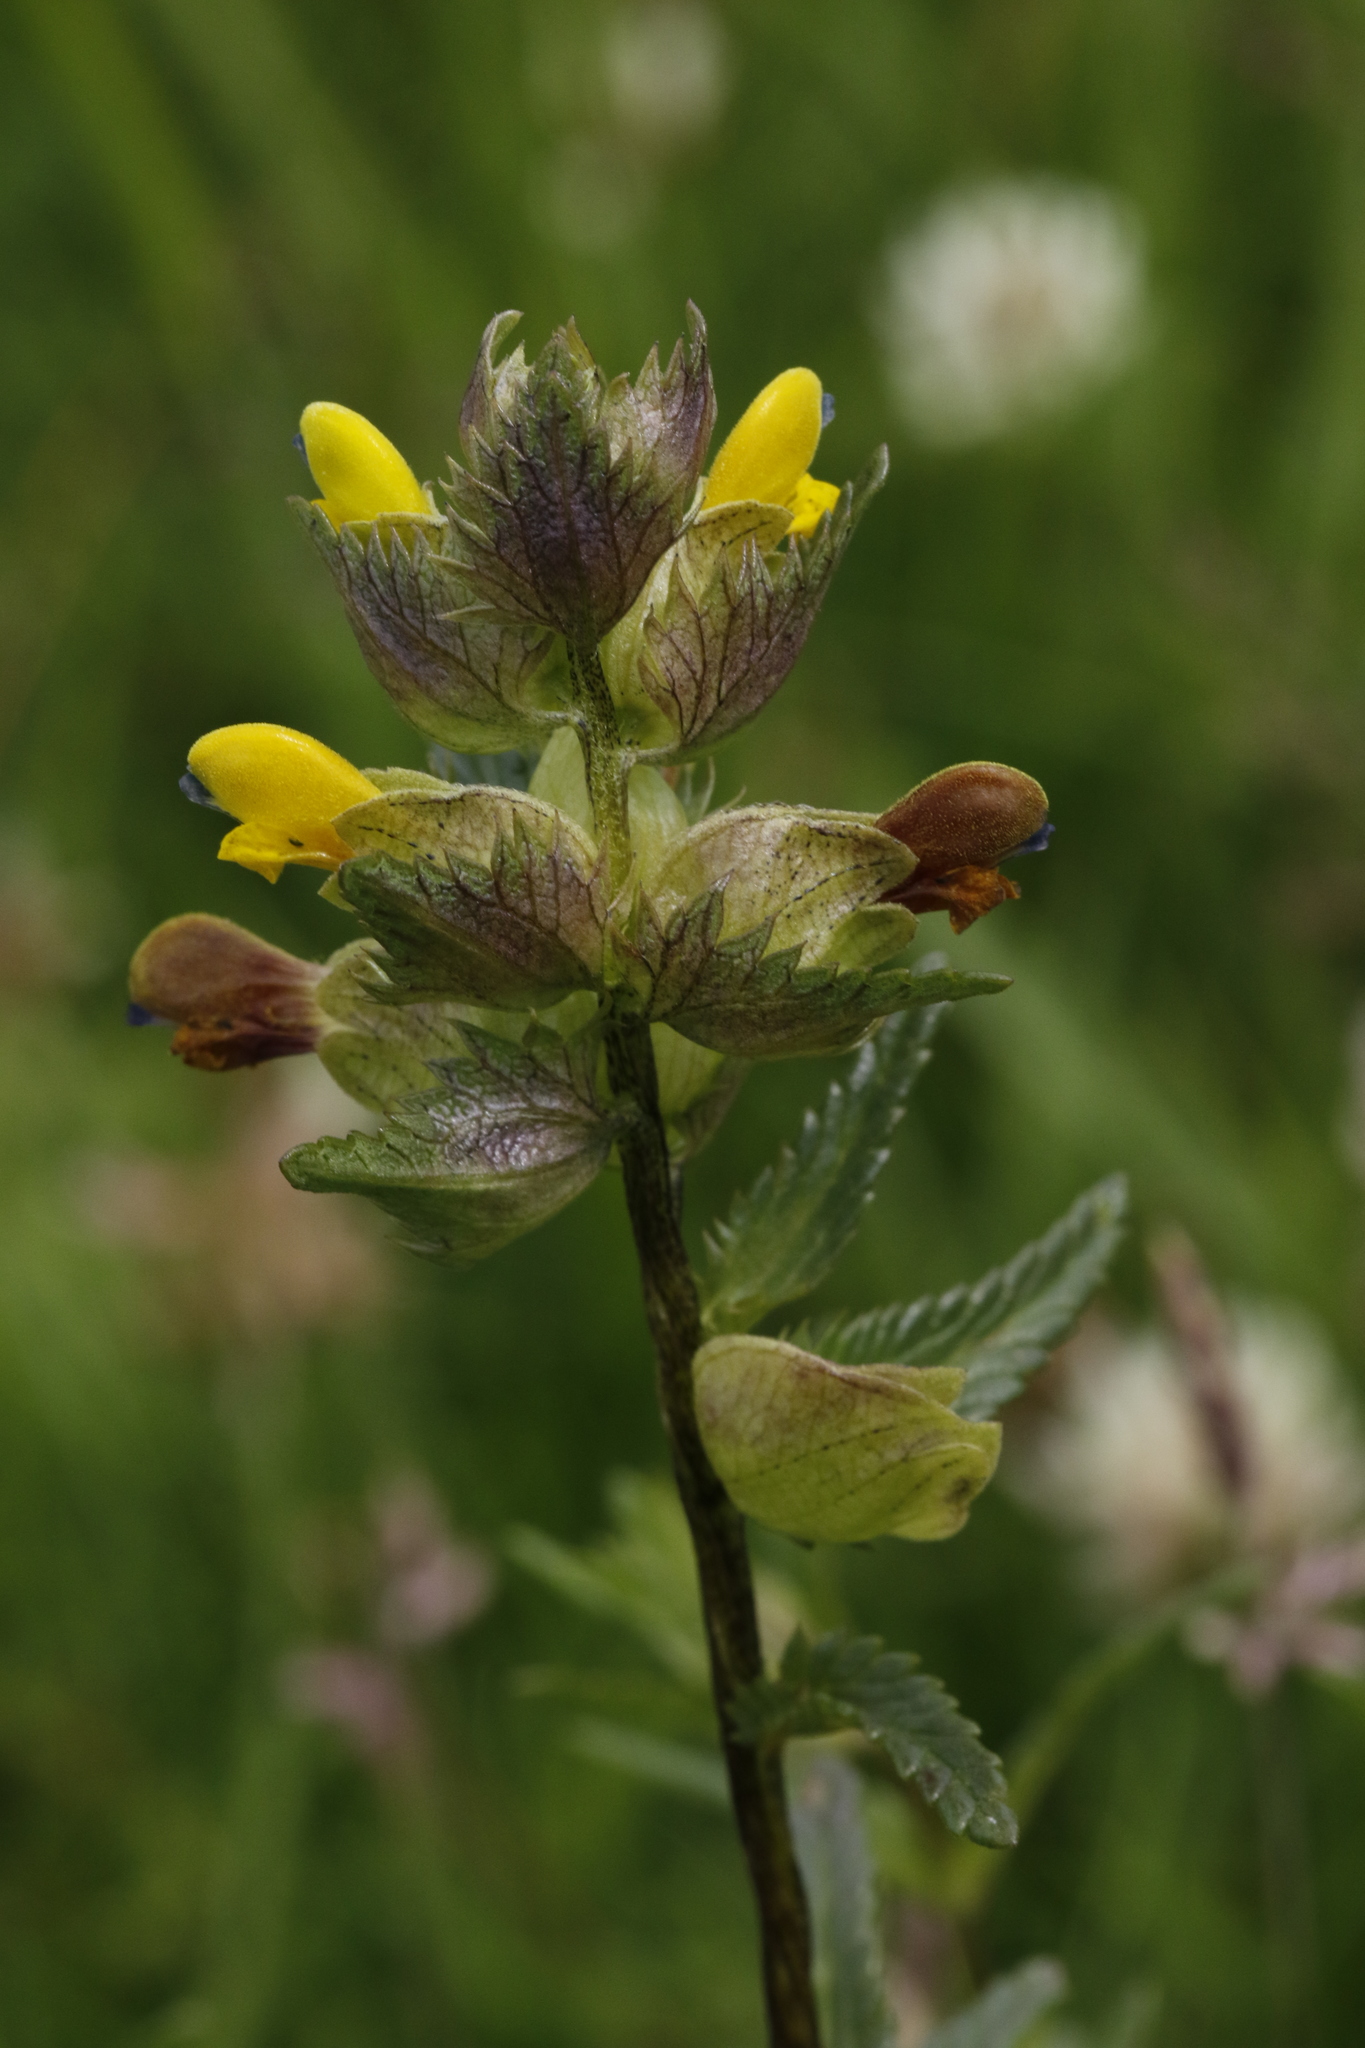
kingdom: Plantae
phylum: Tracheophyta
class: Magnoliopsida
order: Lamiales
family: Orobanchaceae
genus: Rhinanthus
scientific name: Rhinanthus minor
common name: Yellow-rattle
